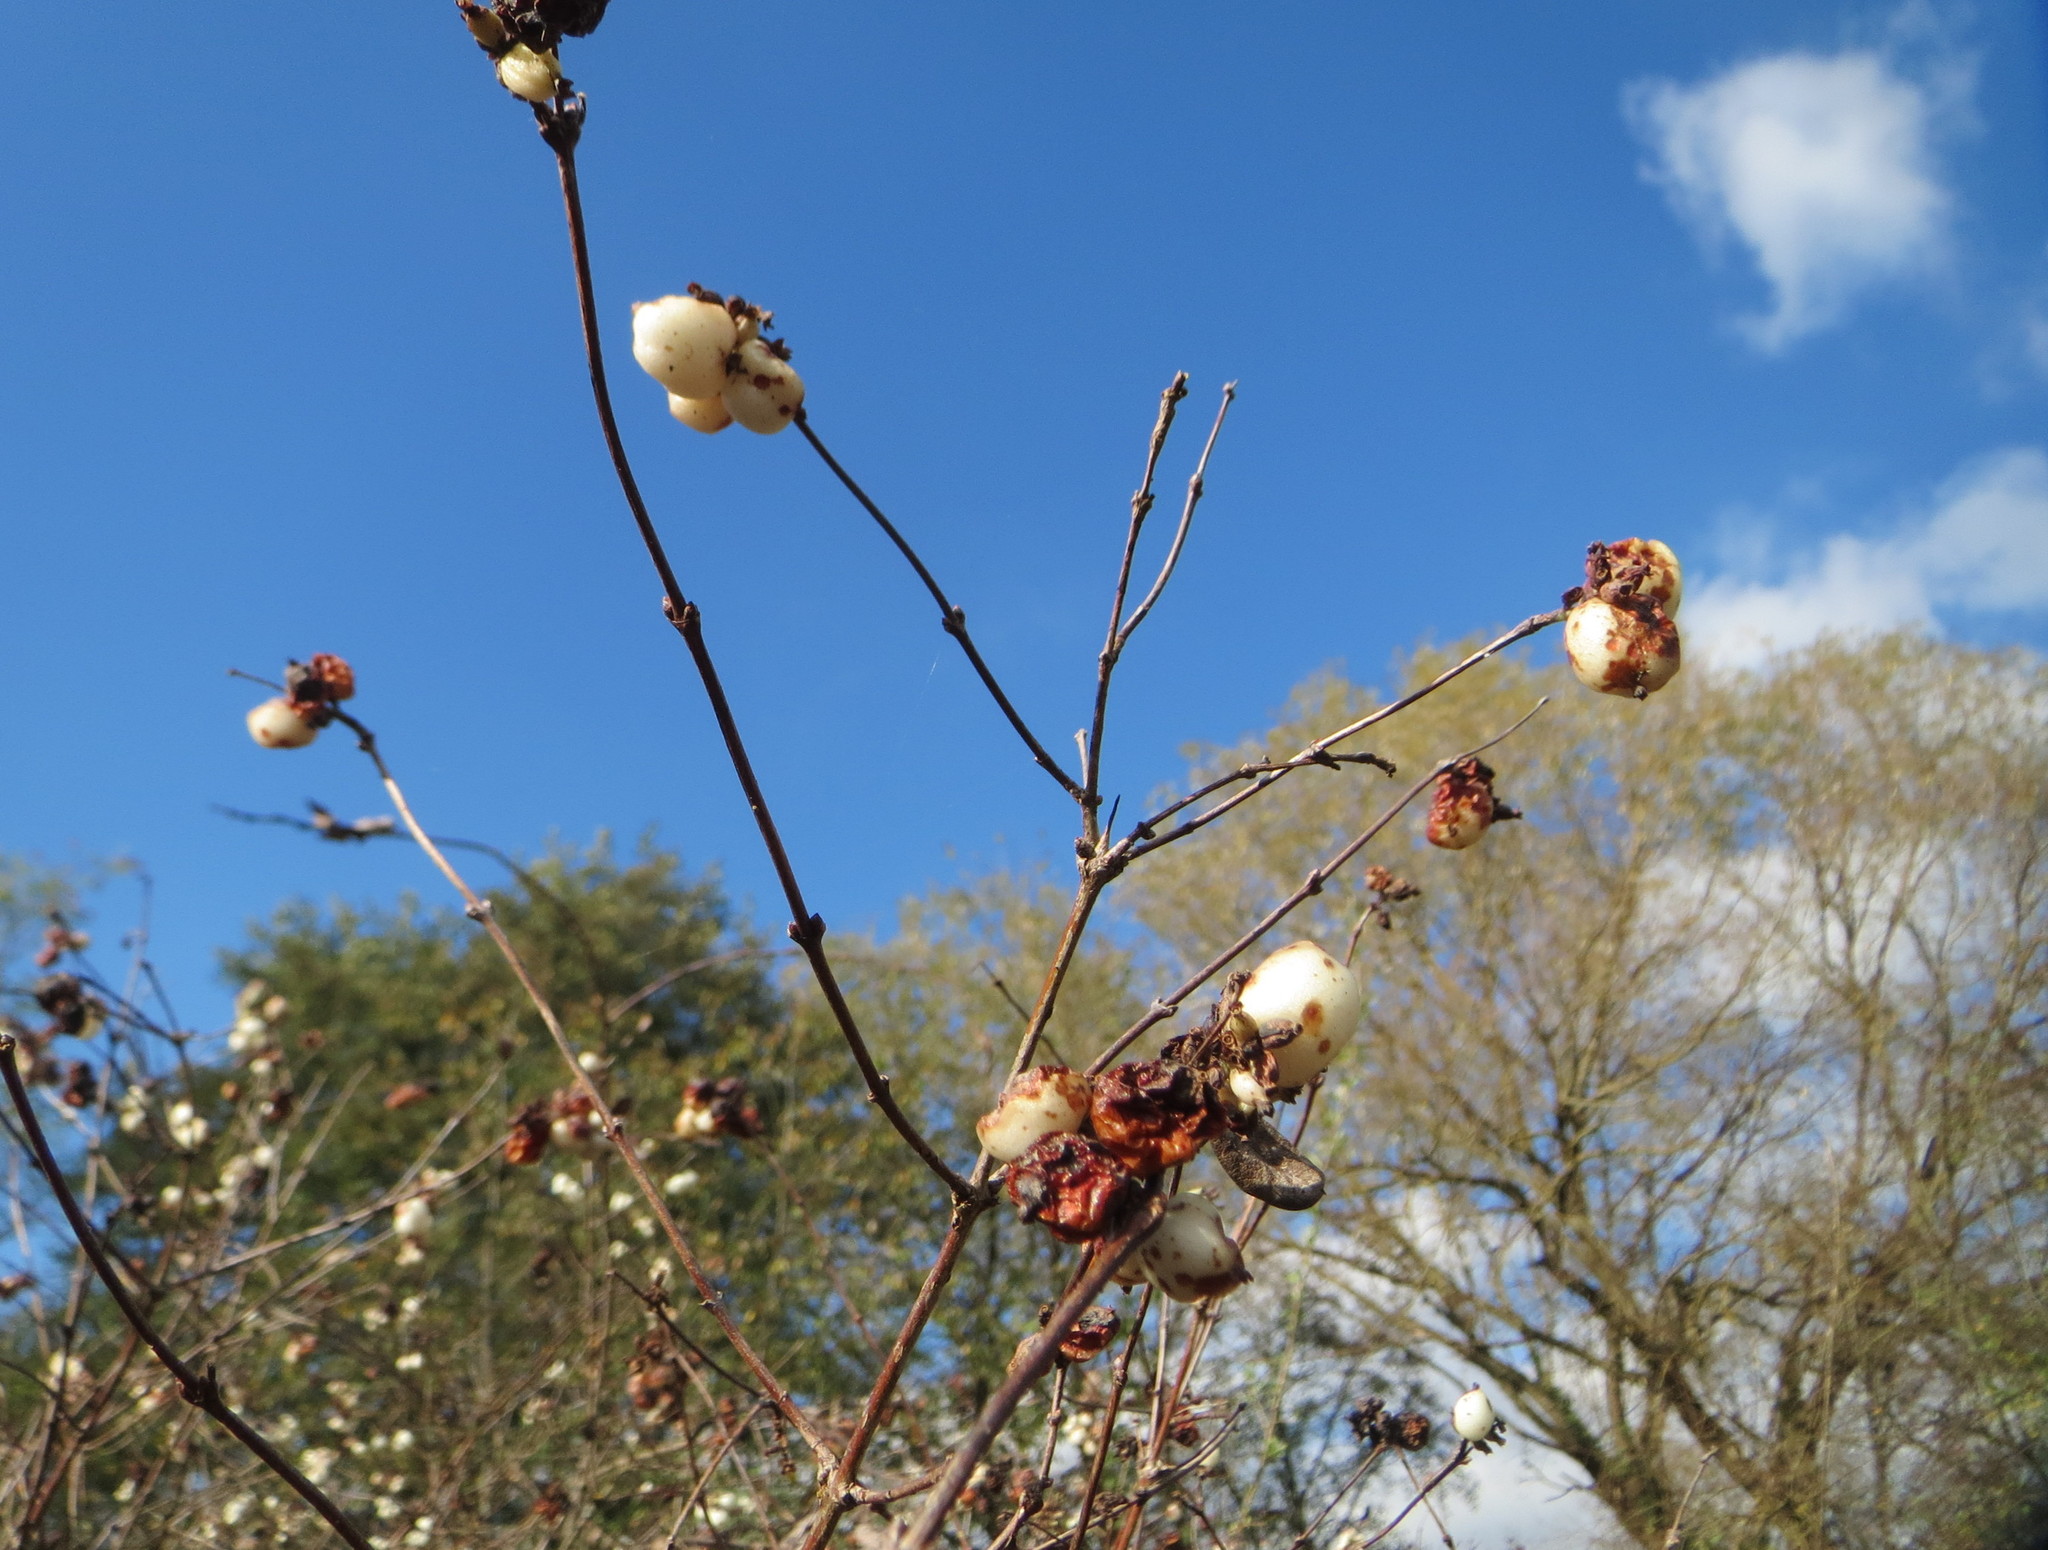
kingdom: Plantae
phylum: Tracheophyta
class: Magnoliopsida
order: Dipsacales
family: Caprifoliaceae
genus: Symphoricarpos
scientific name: Symphoricarpos albus
